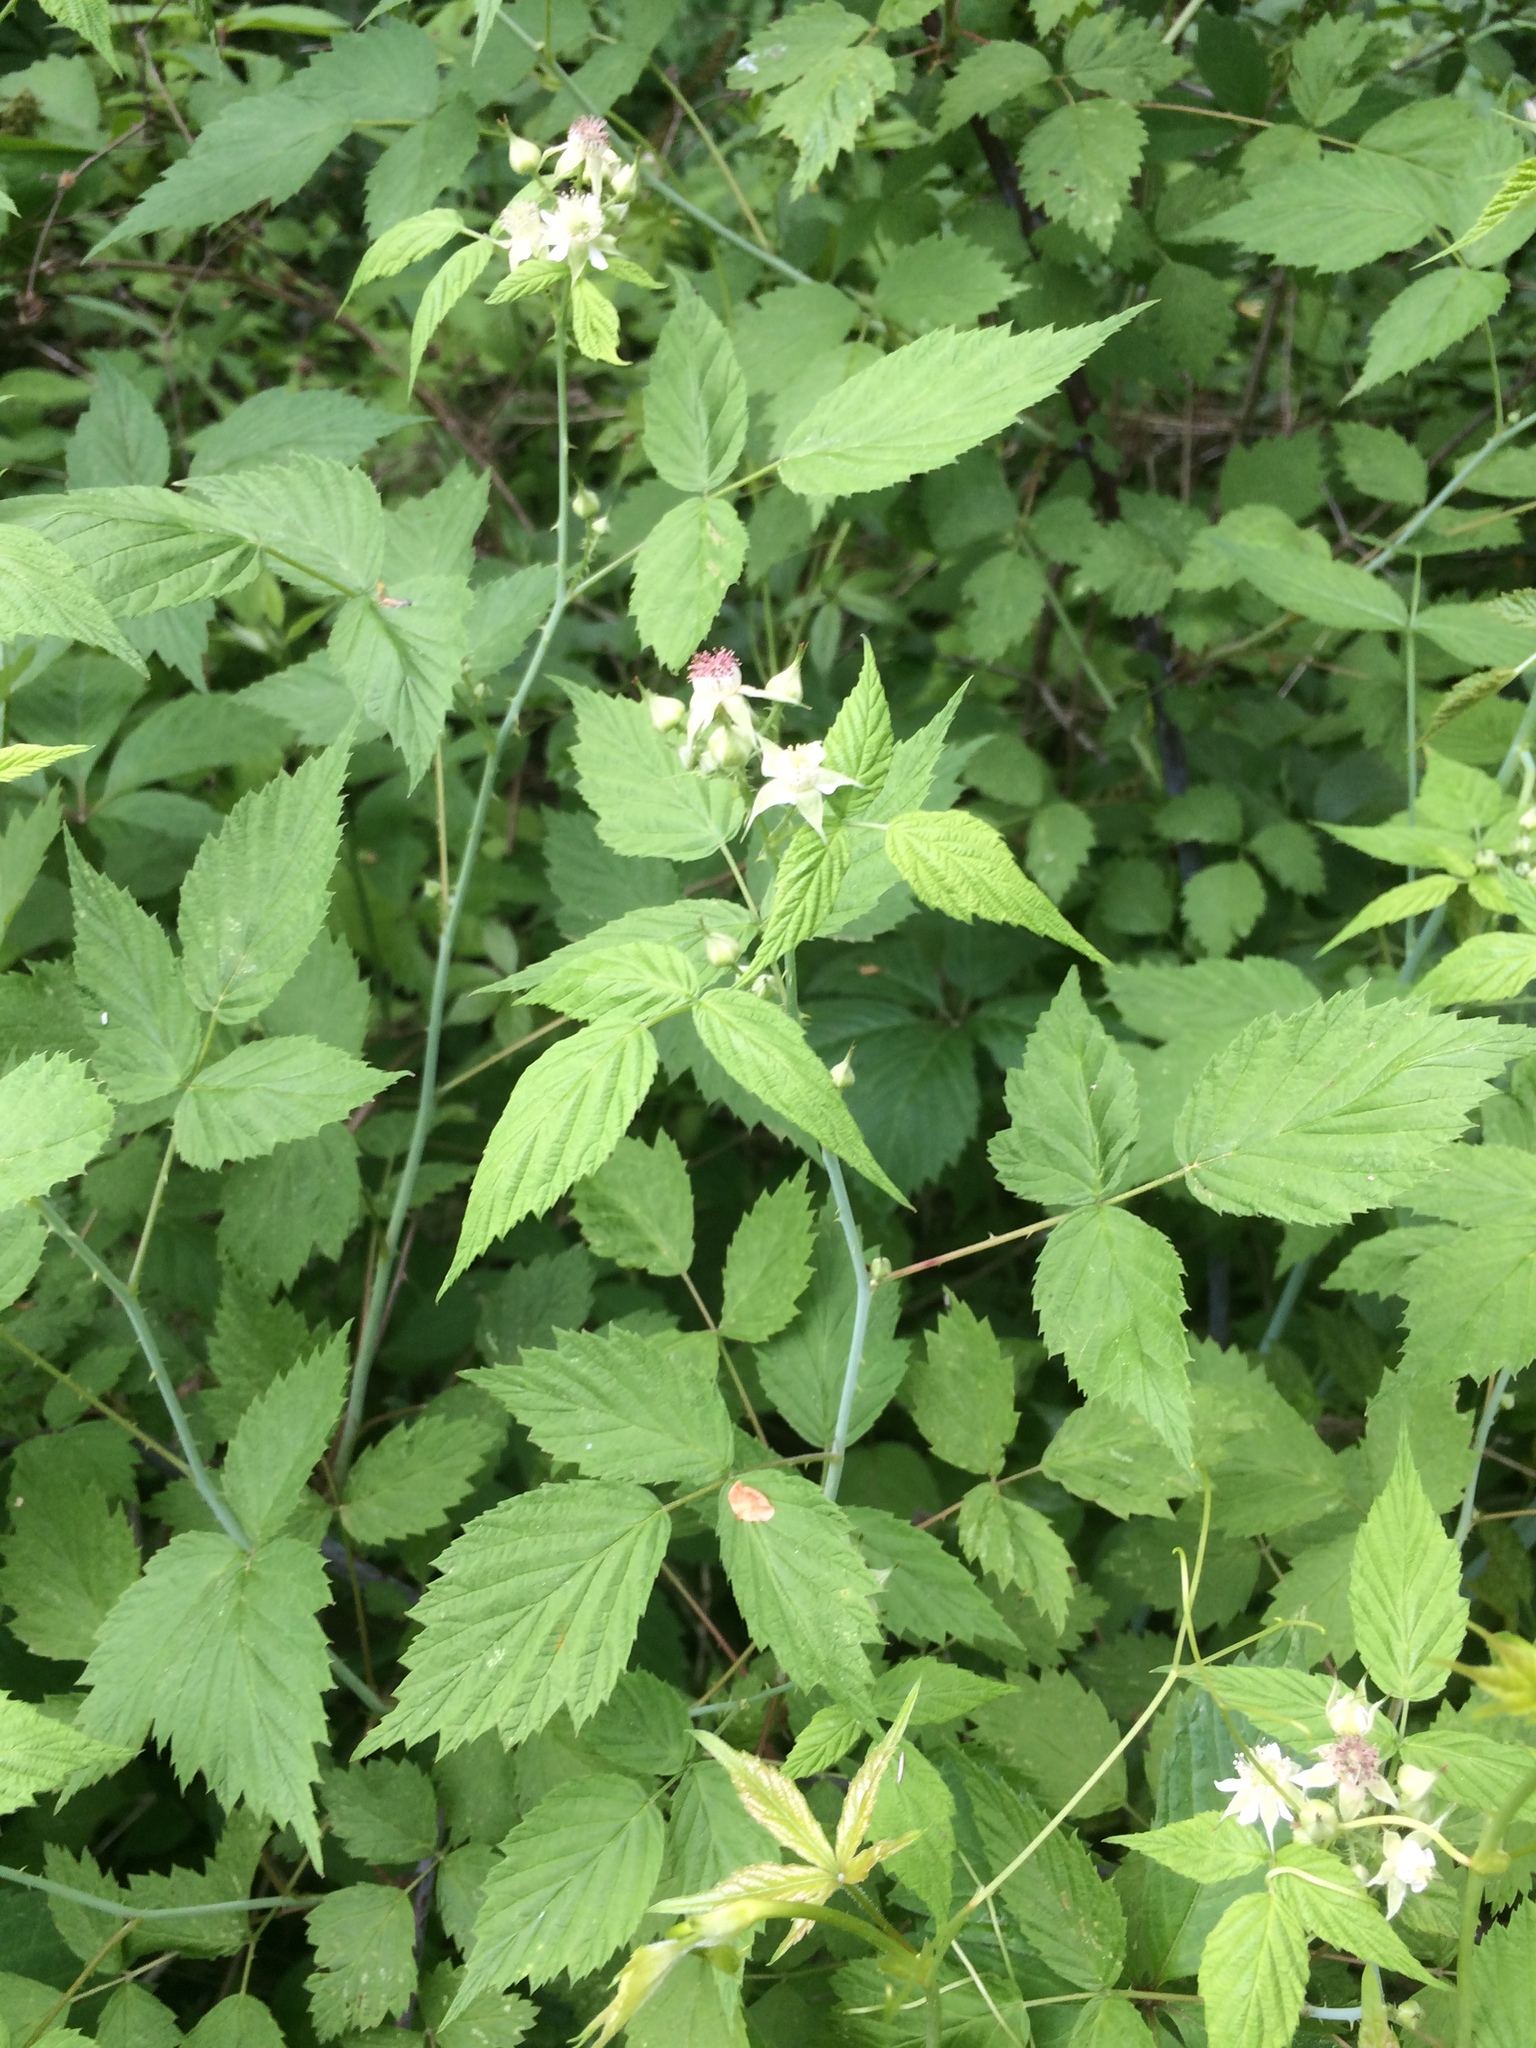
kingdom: Plantae
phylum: Tracheophyta
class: Magnoliopsida
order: Rosales
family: Rosaceae
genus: Rubus
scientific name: Rubus occidentalis
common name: Black raspberry
